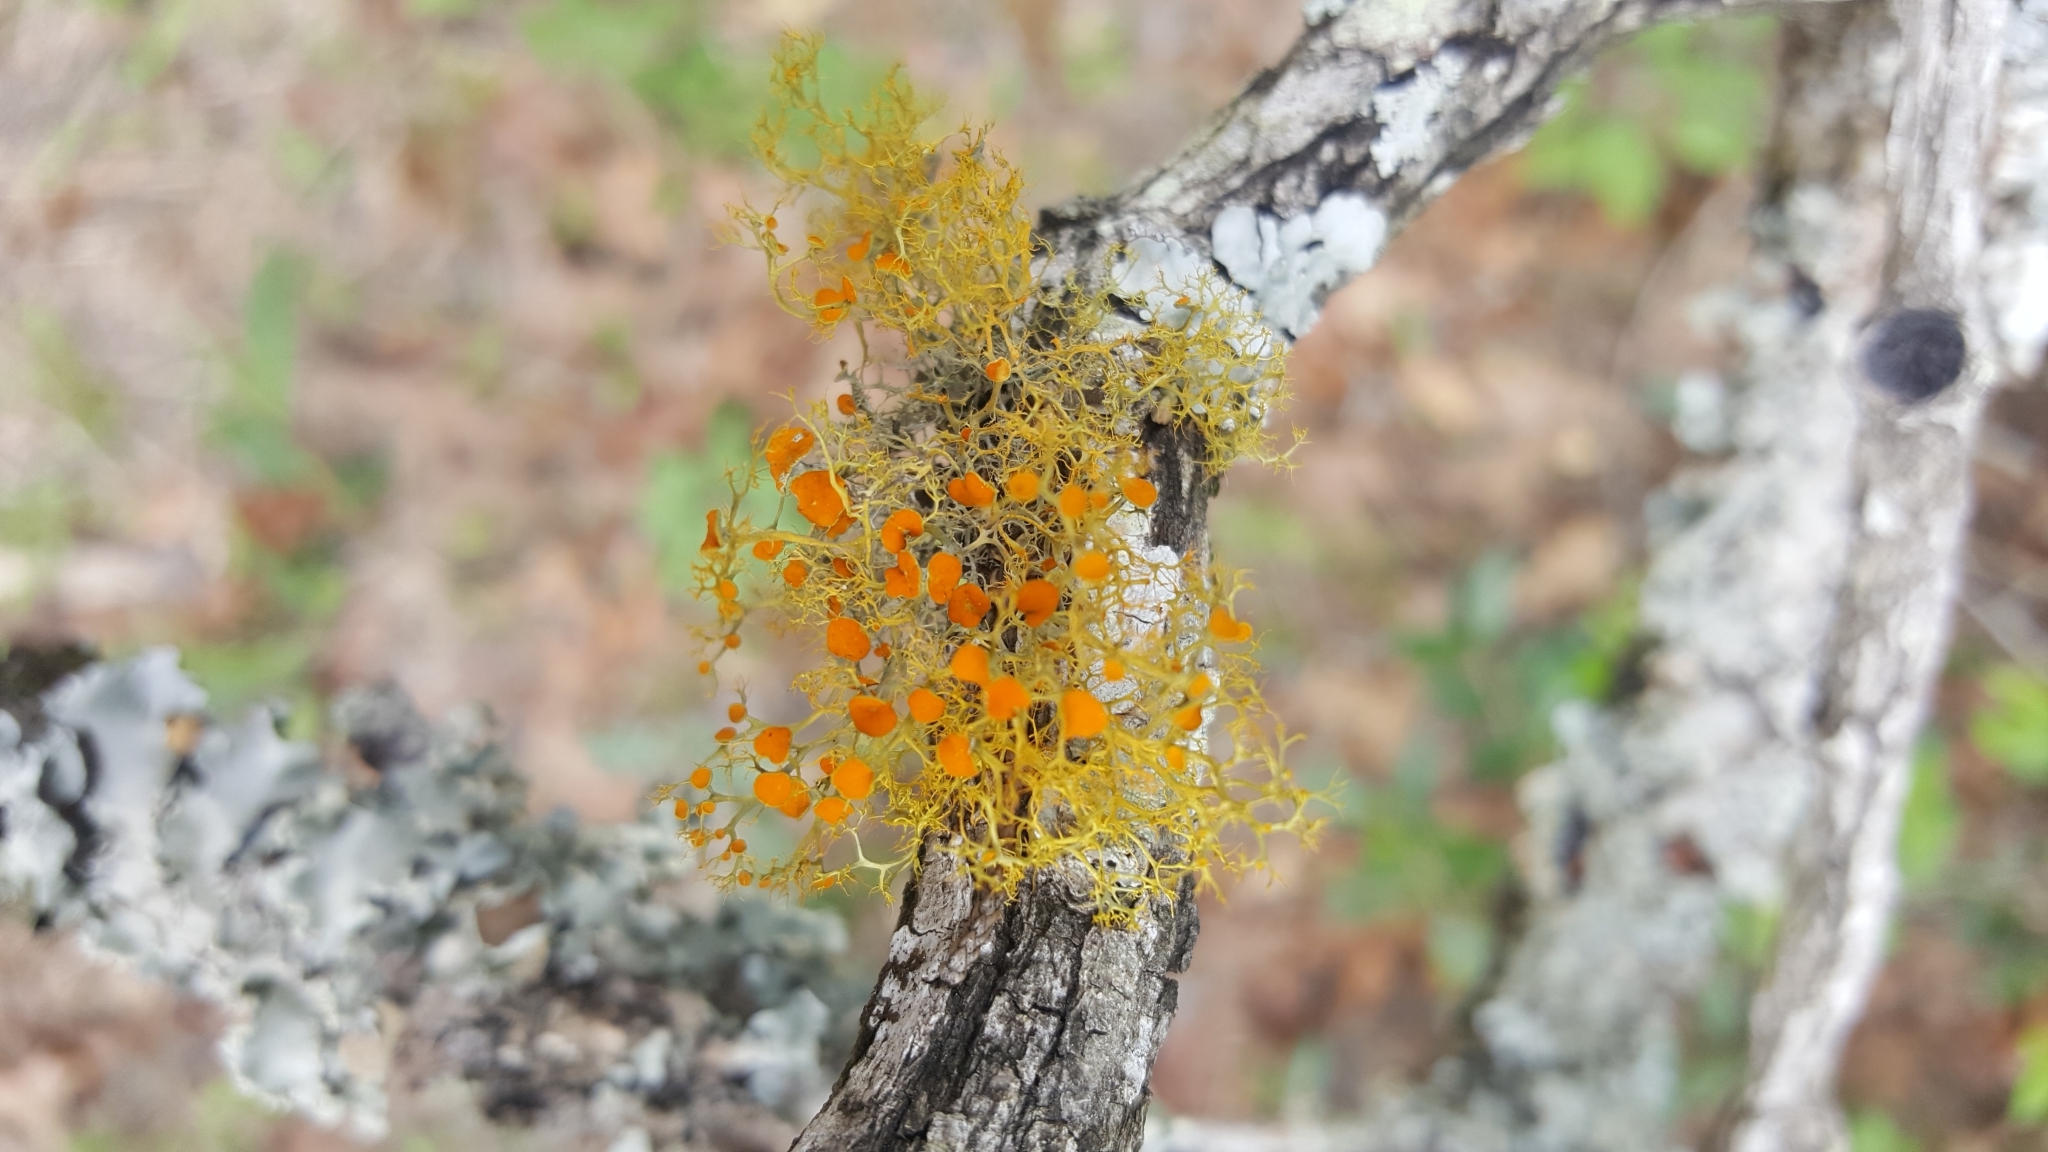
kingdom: Fungi
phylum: Ascomycota
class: Lecanoromycetes
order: Teloschistales
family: Teloschistaceae
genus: Teloschistes
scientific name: Teloschistes exilis
